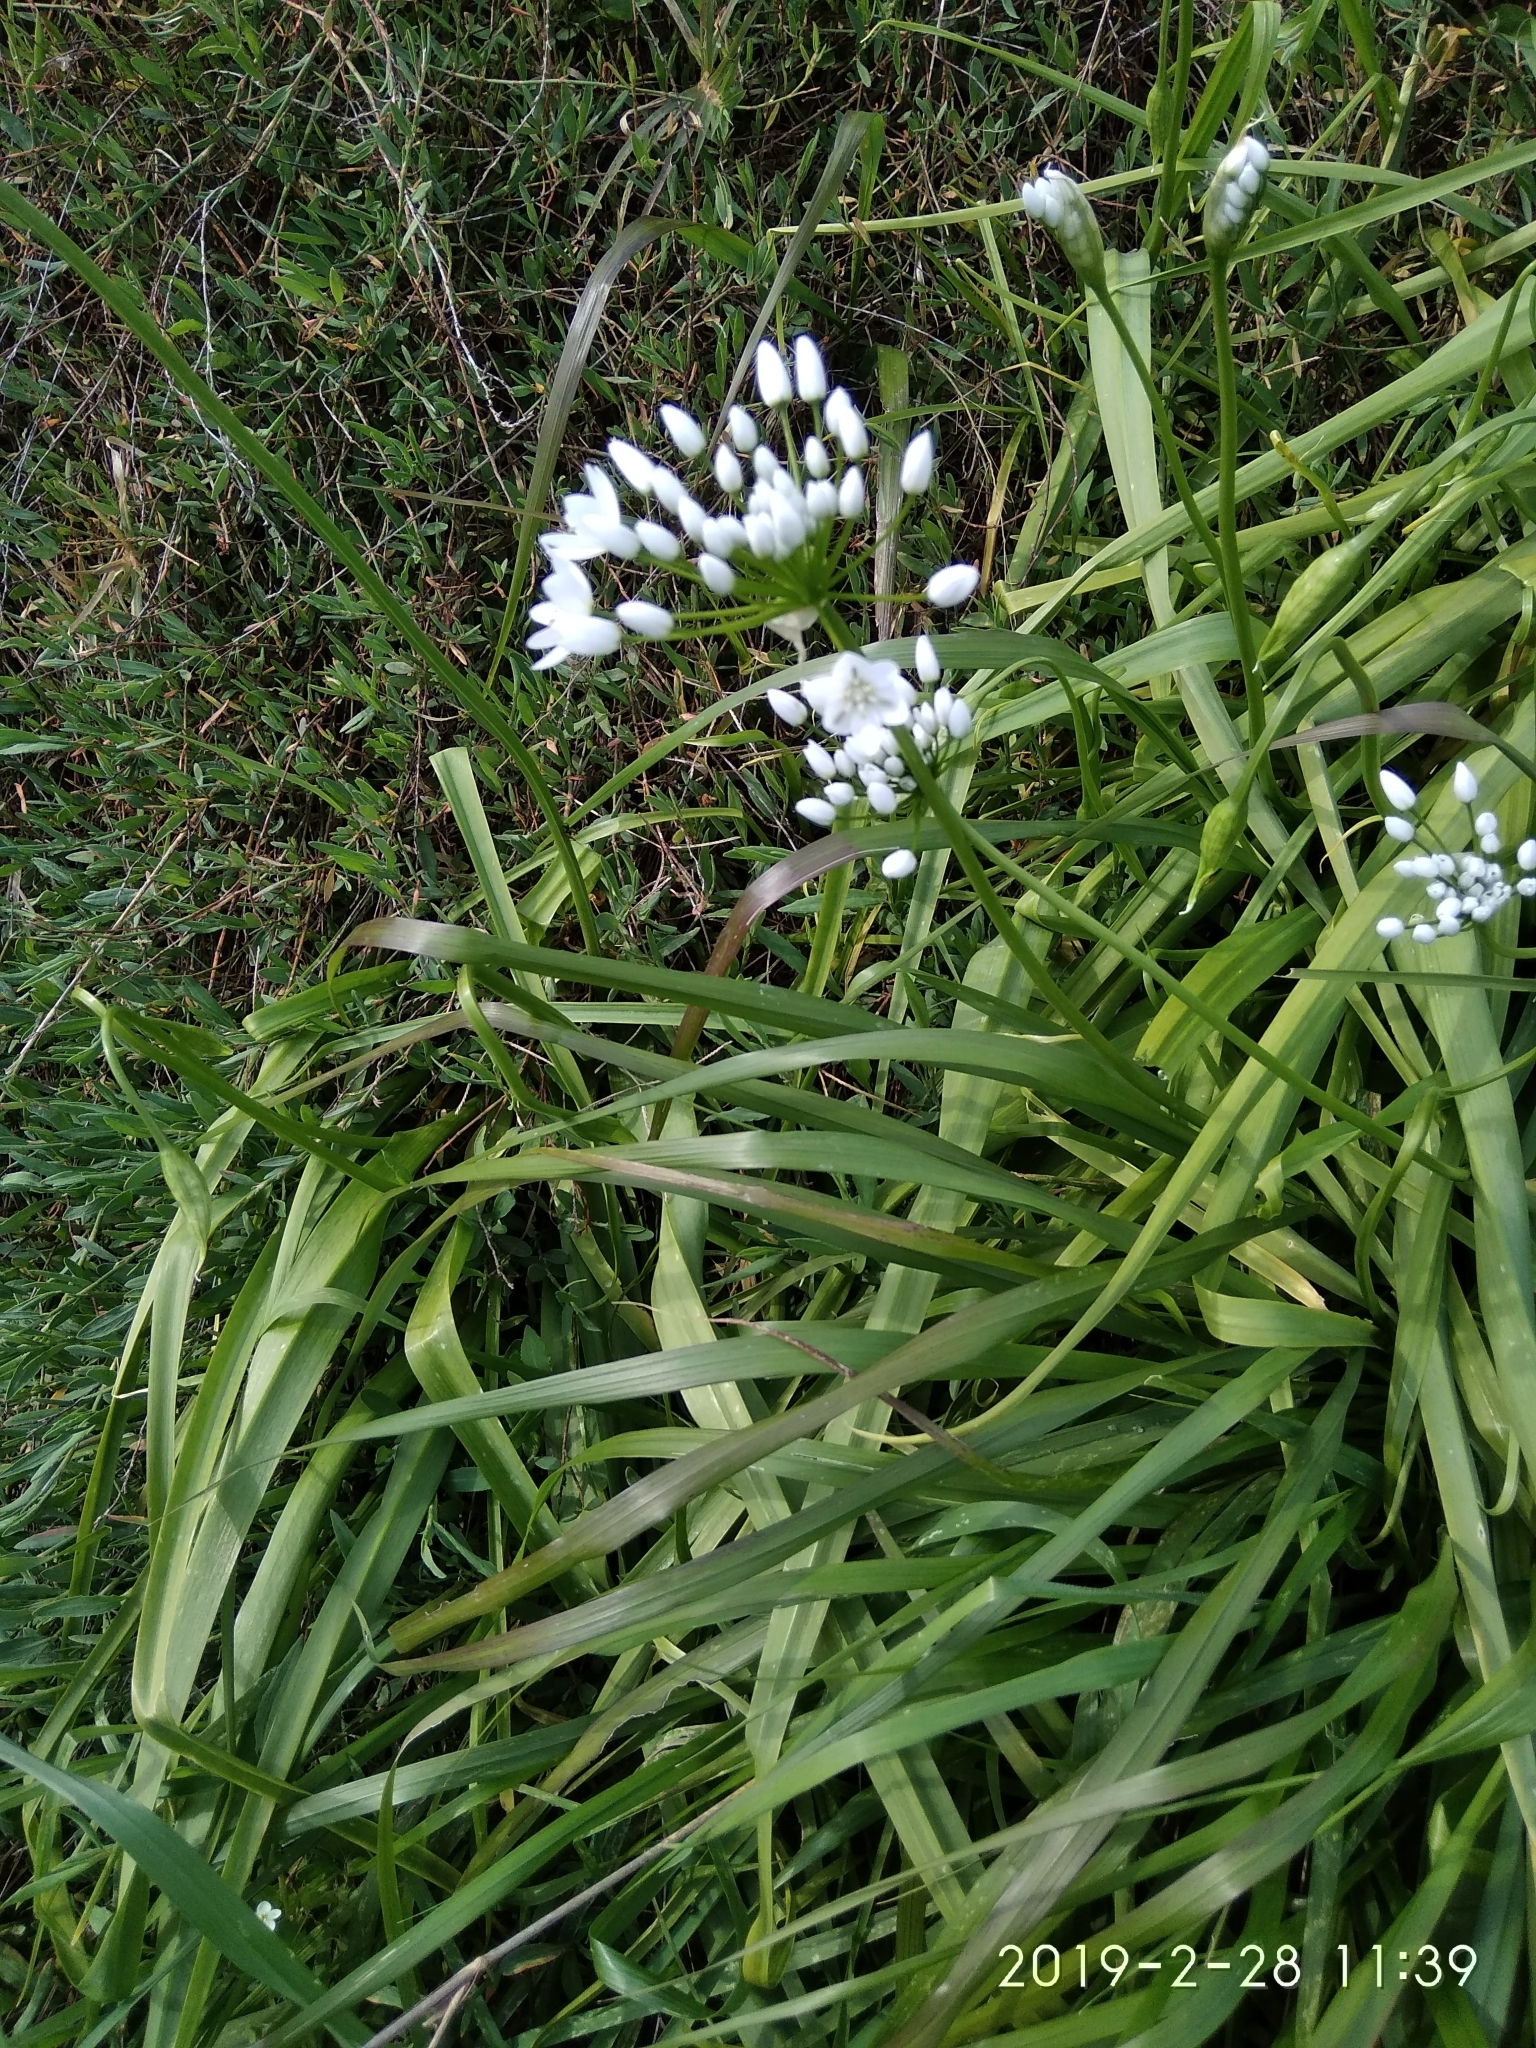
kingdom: Plantae
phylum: Tracheophyta
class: Liliopsida
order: Asparagales
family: Amaryllidaceae
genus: Allium
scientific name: Allium neapolitanum
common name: Neapolitan garlic
